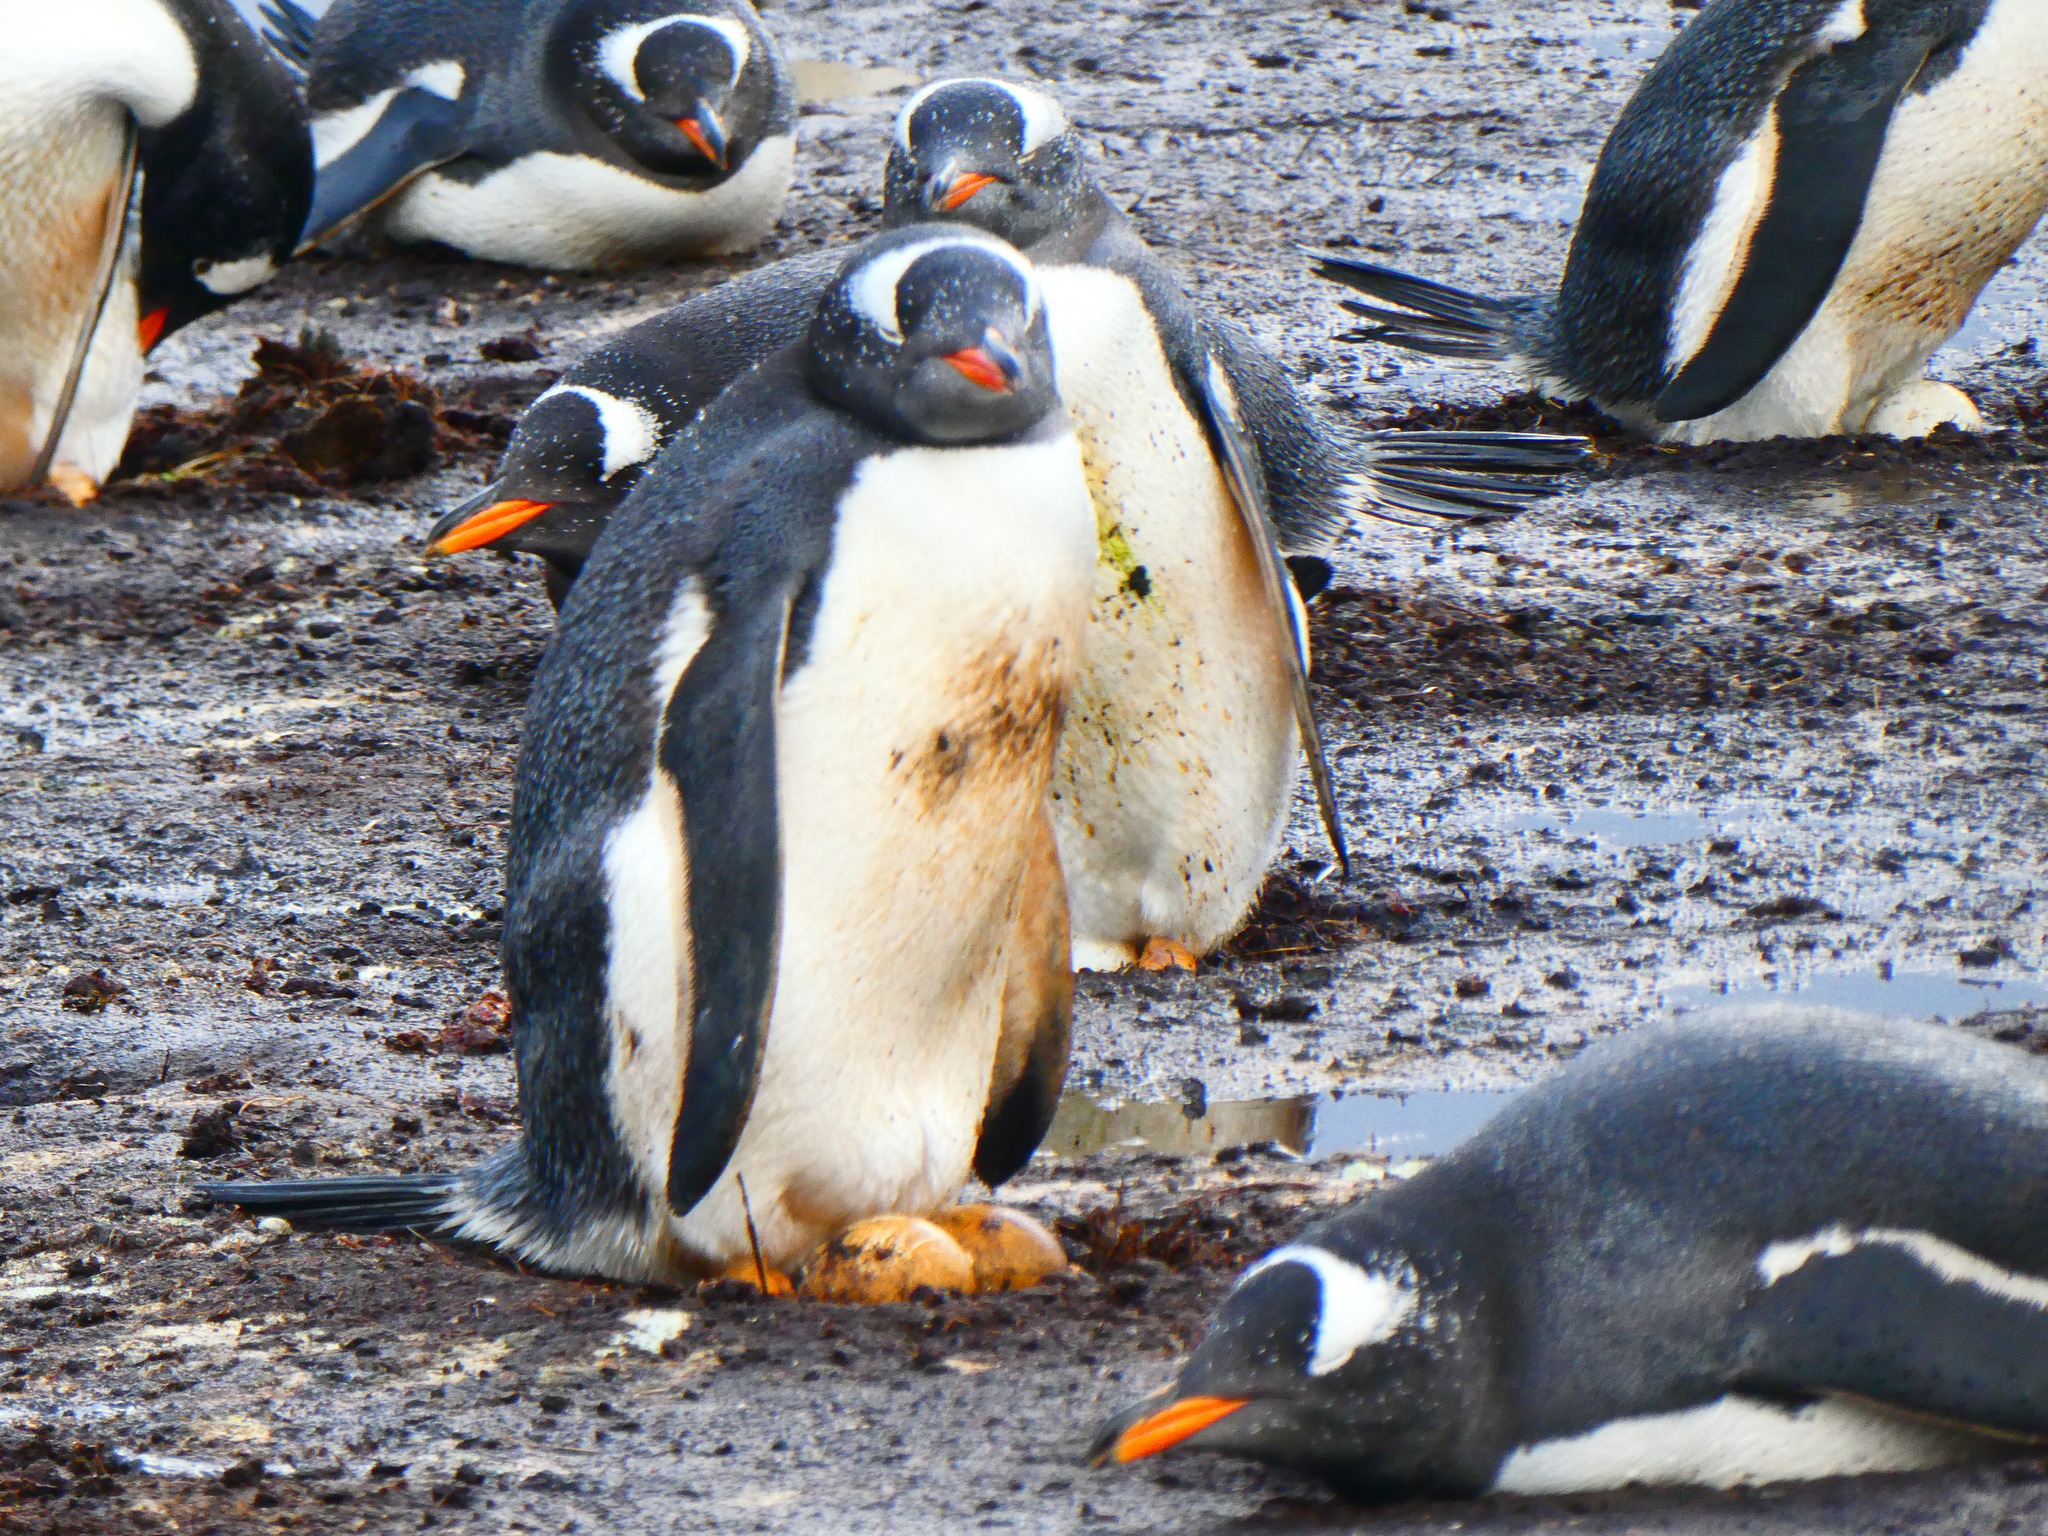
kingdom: Animalia
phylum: Chordata
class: Aves
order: Sphenisciformes
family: Spheniscidae
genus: Pygoscelis
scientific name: Pygoscelis papua
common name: Gentoo penguin
